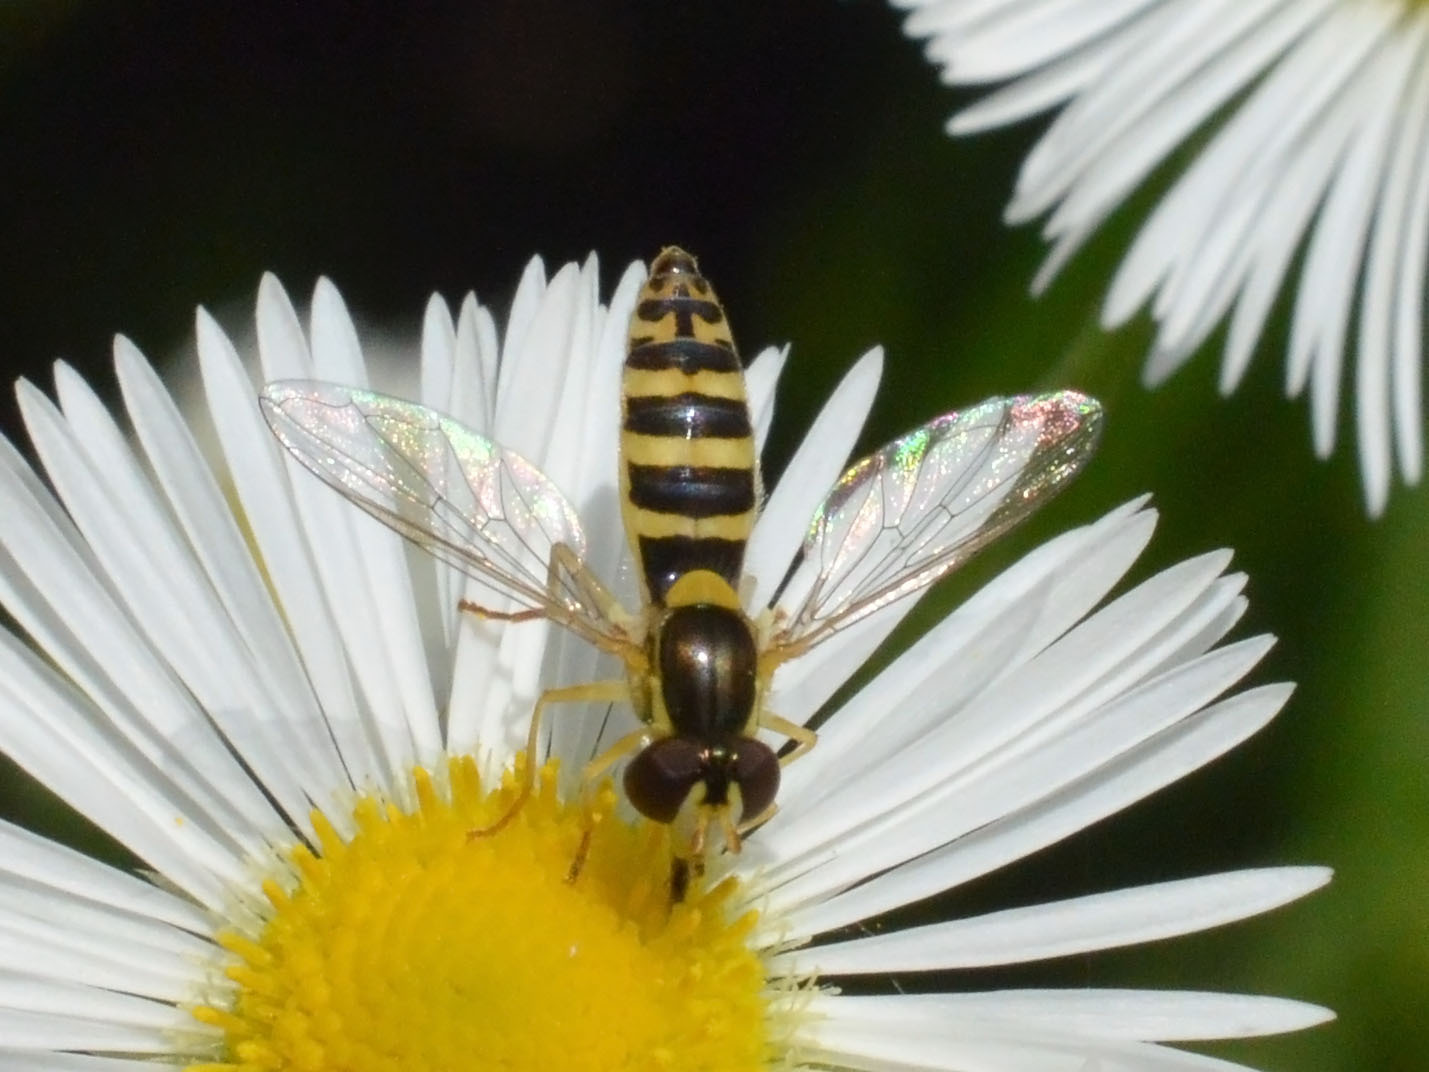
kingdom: Animalia
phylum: Arthropoda
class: Insecta
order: Diptera
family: Syrphidae
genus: Sphaerophoria
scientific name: Sphaerophoria
